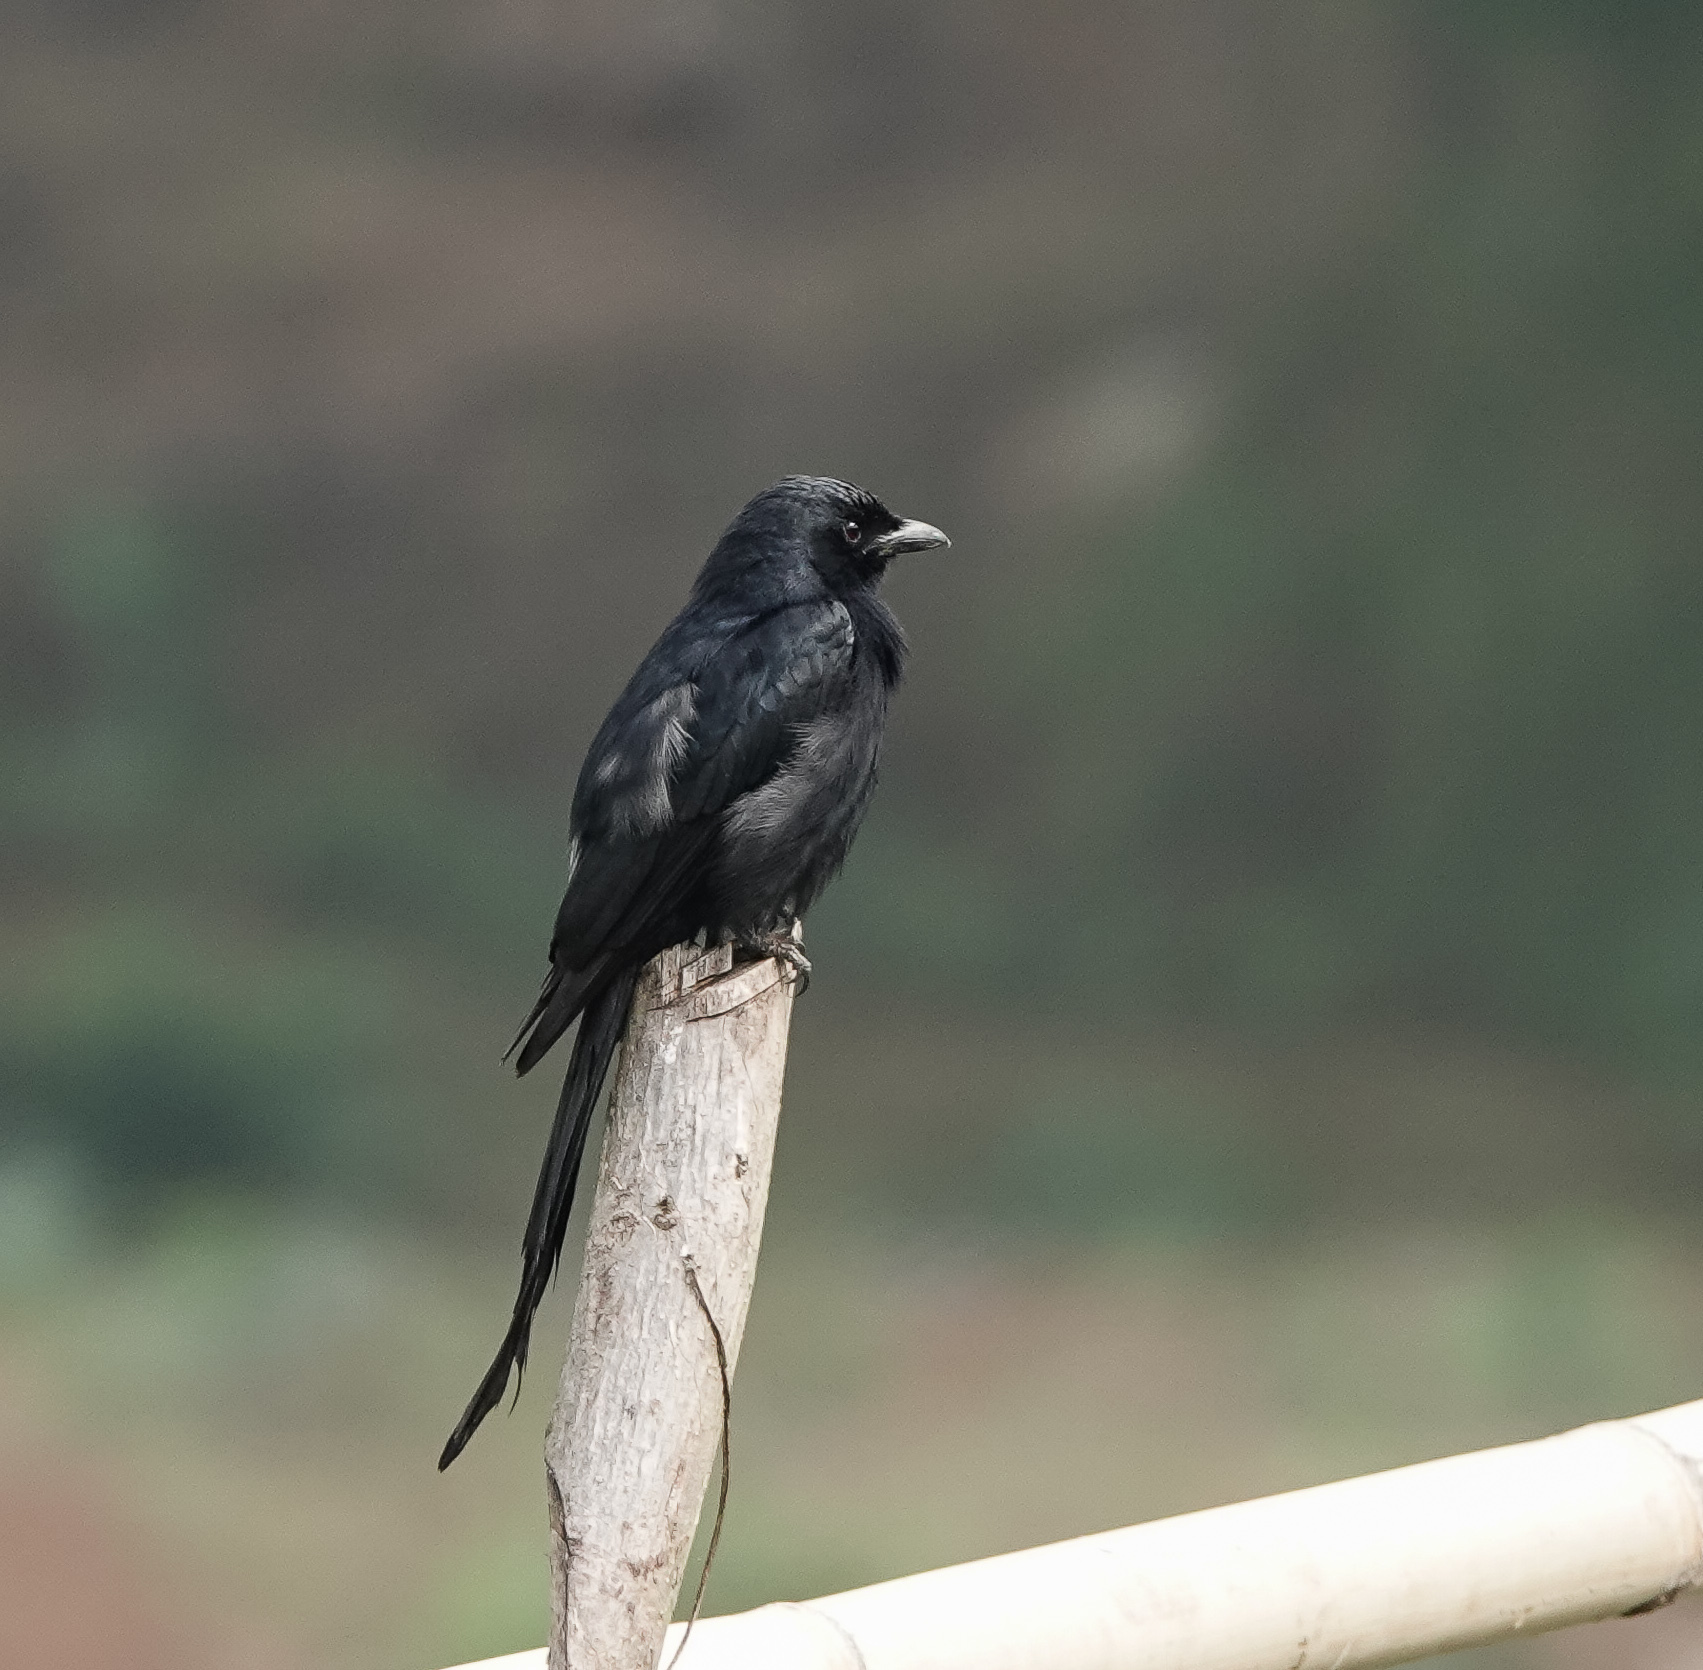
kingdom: Animalia
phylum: Chordata
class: Aves
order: Passeriformes
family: Dicruridae
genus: Dicrurus
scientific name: Dicrurus macrocercus
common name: Black drongo
